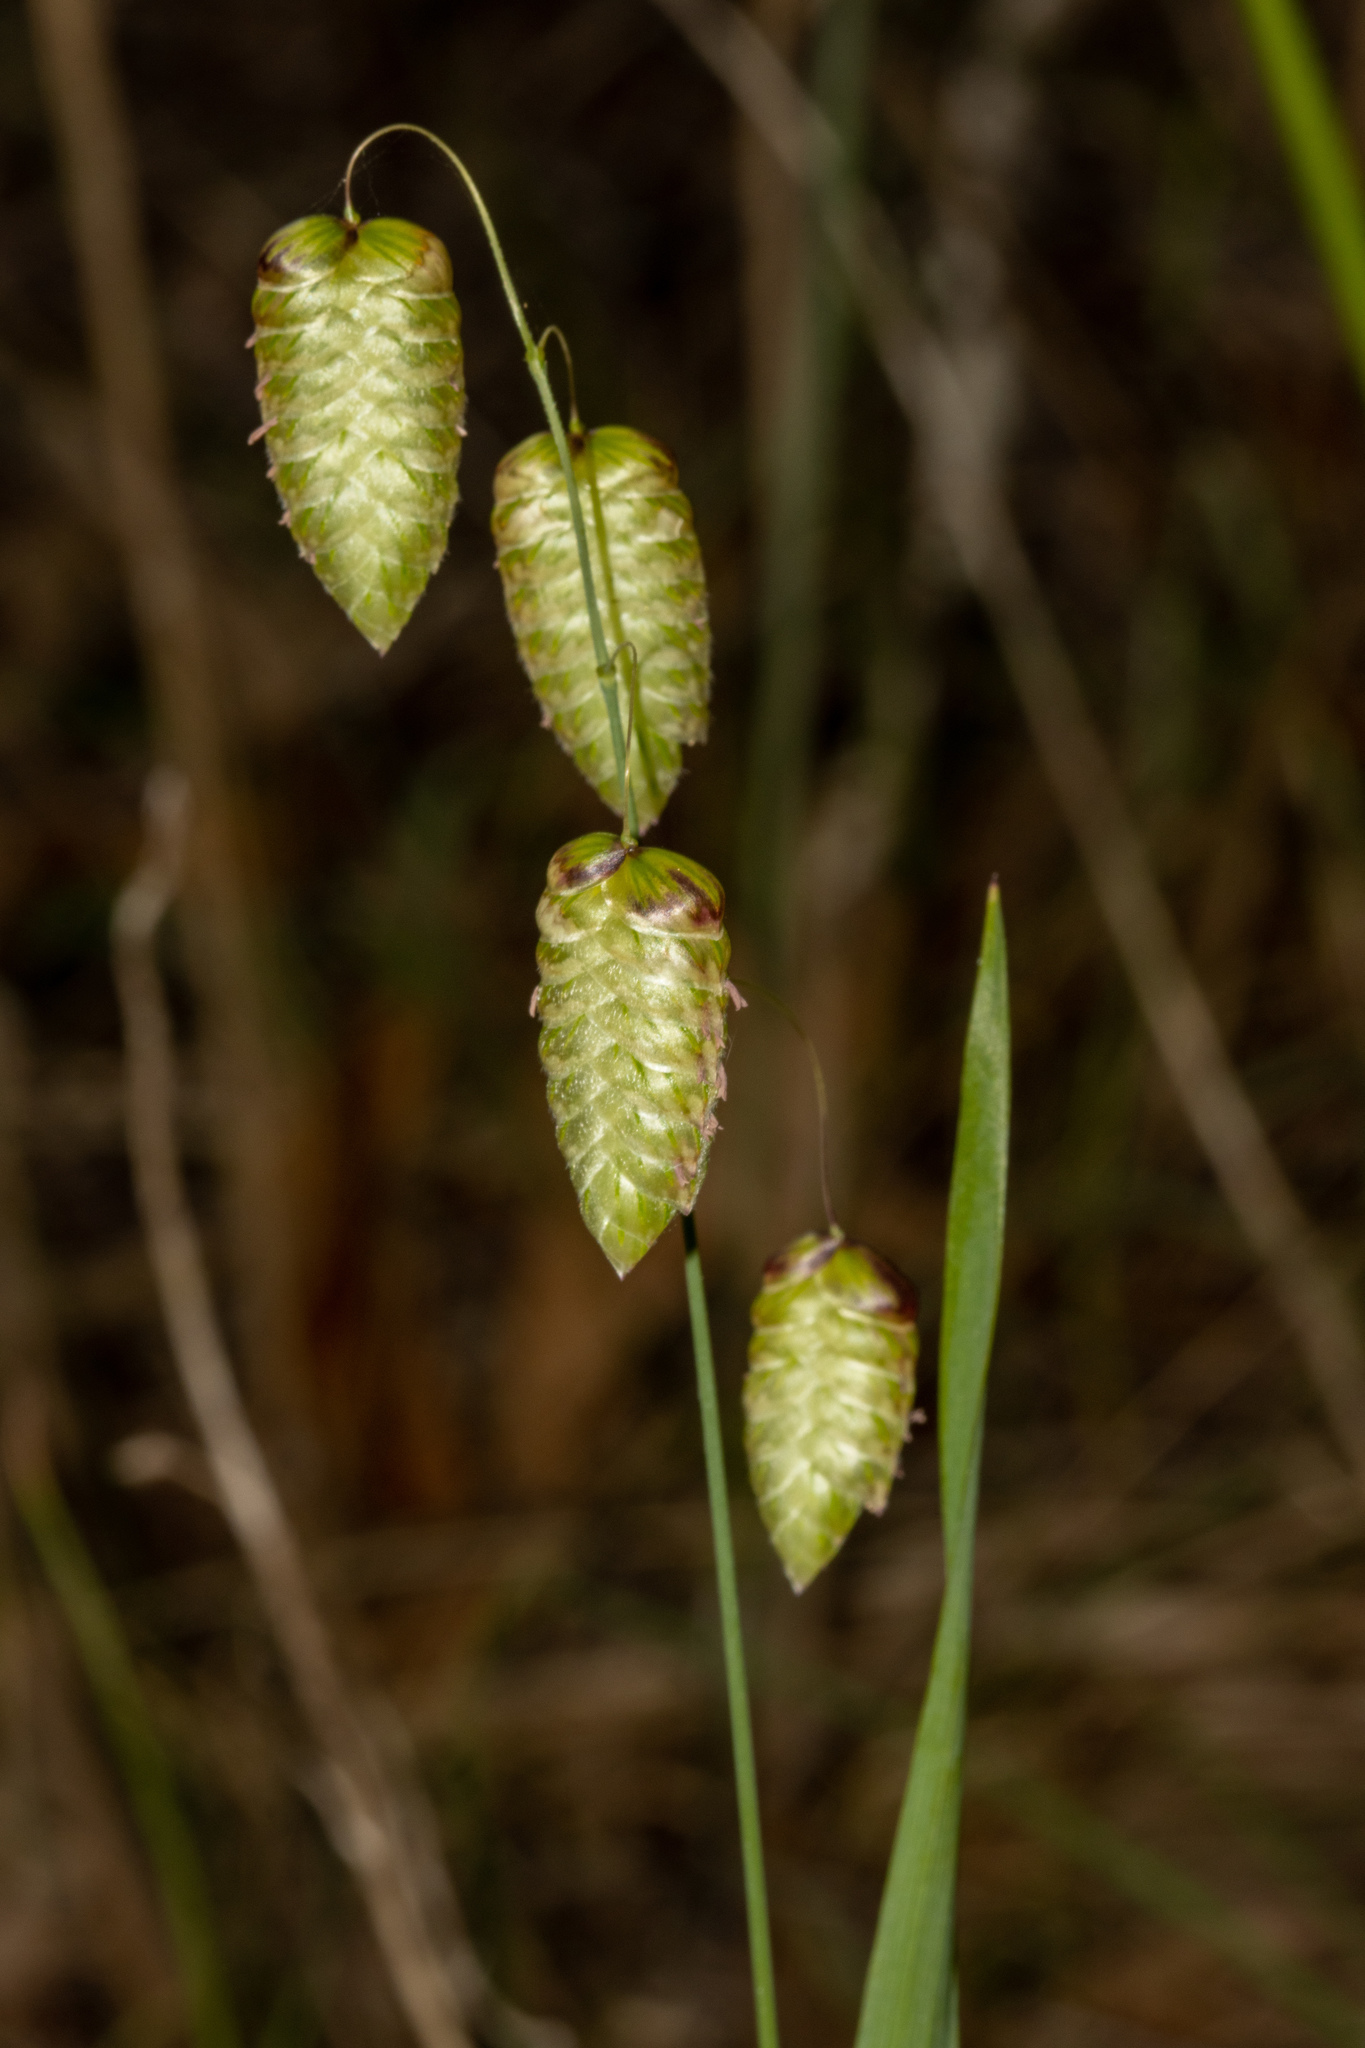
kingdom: Plantae
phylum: Tracheophyta
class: Liliopsida
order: Poales
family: Poaceae
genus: Briza
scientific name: Briza maxima
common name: Big quakinggrass
